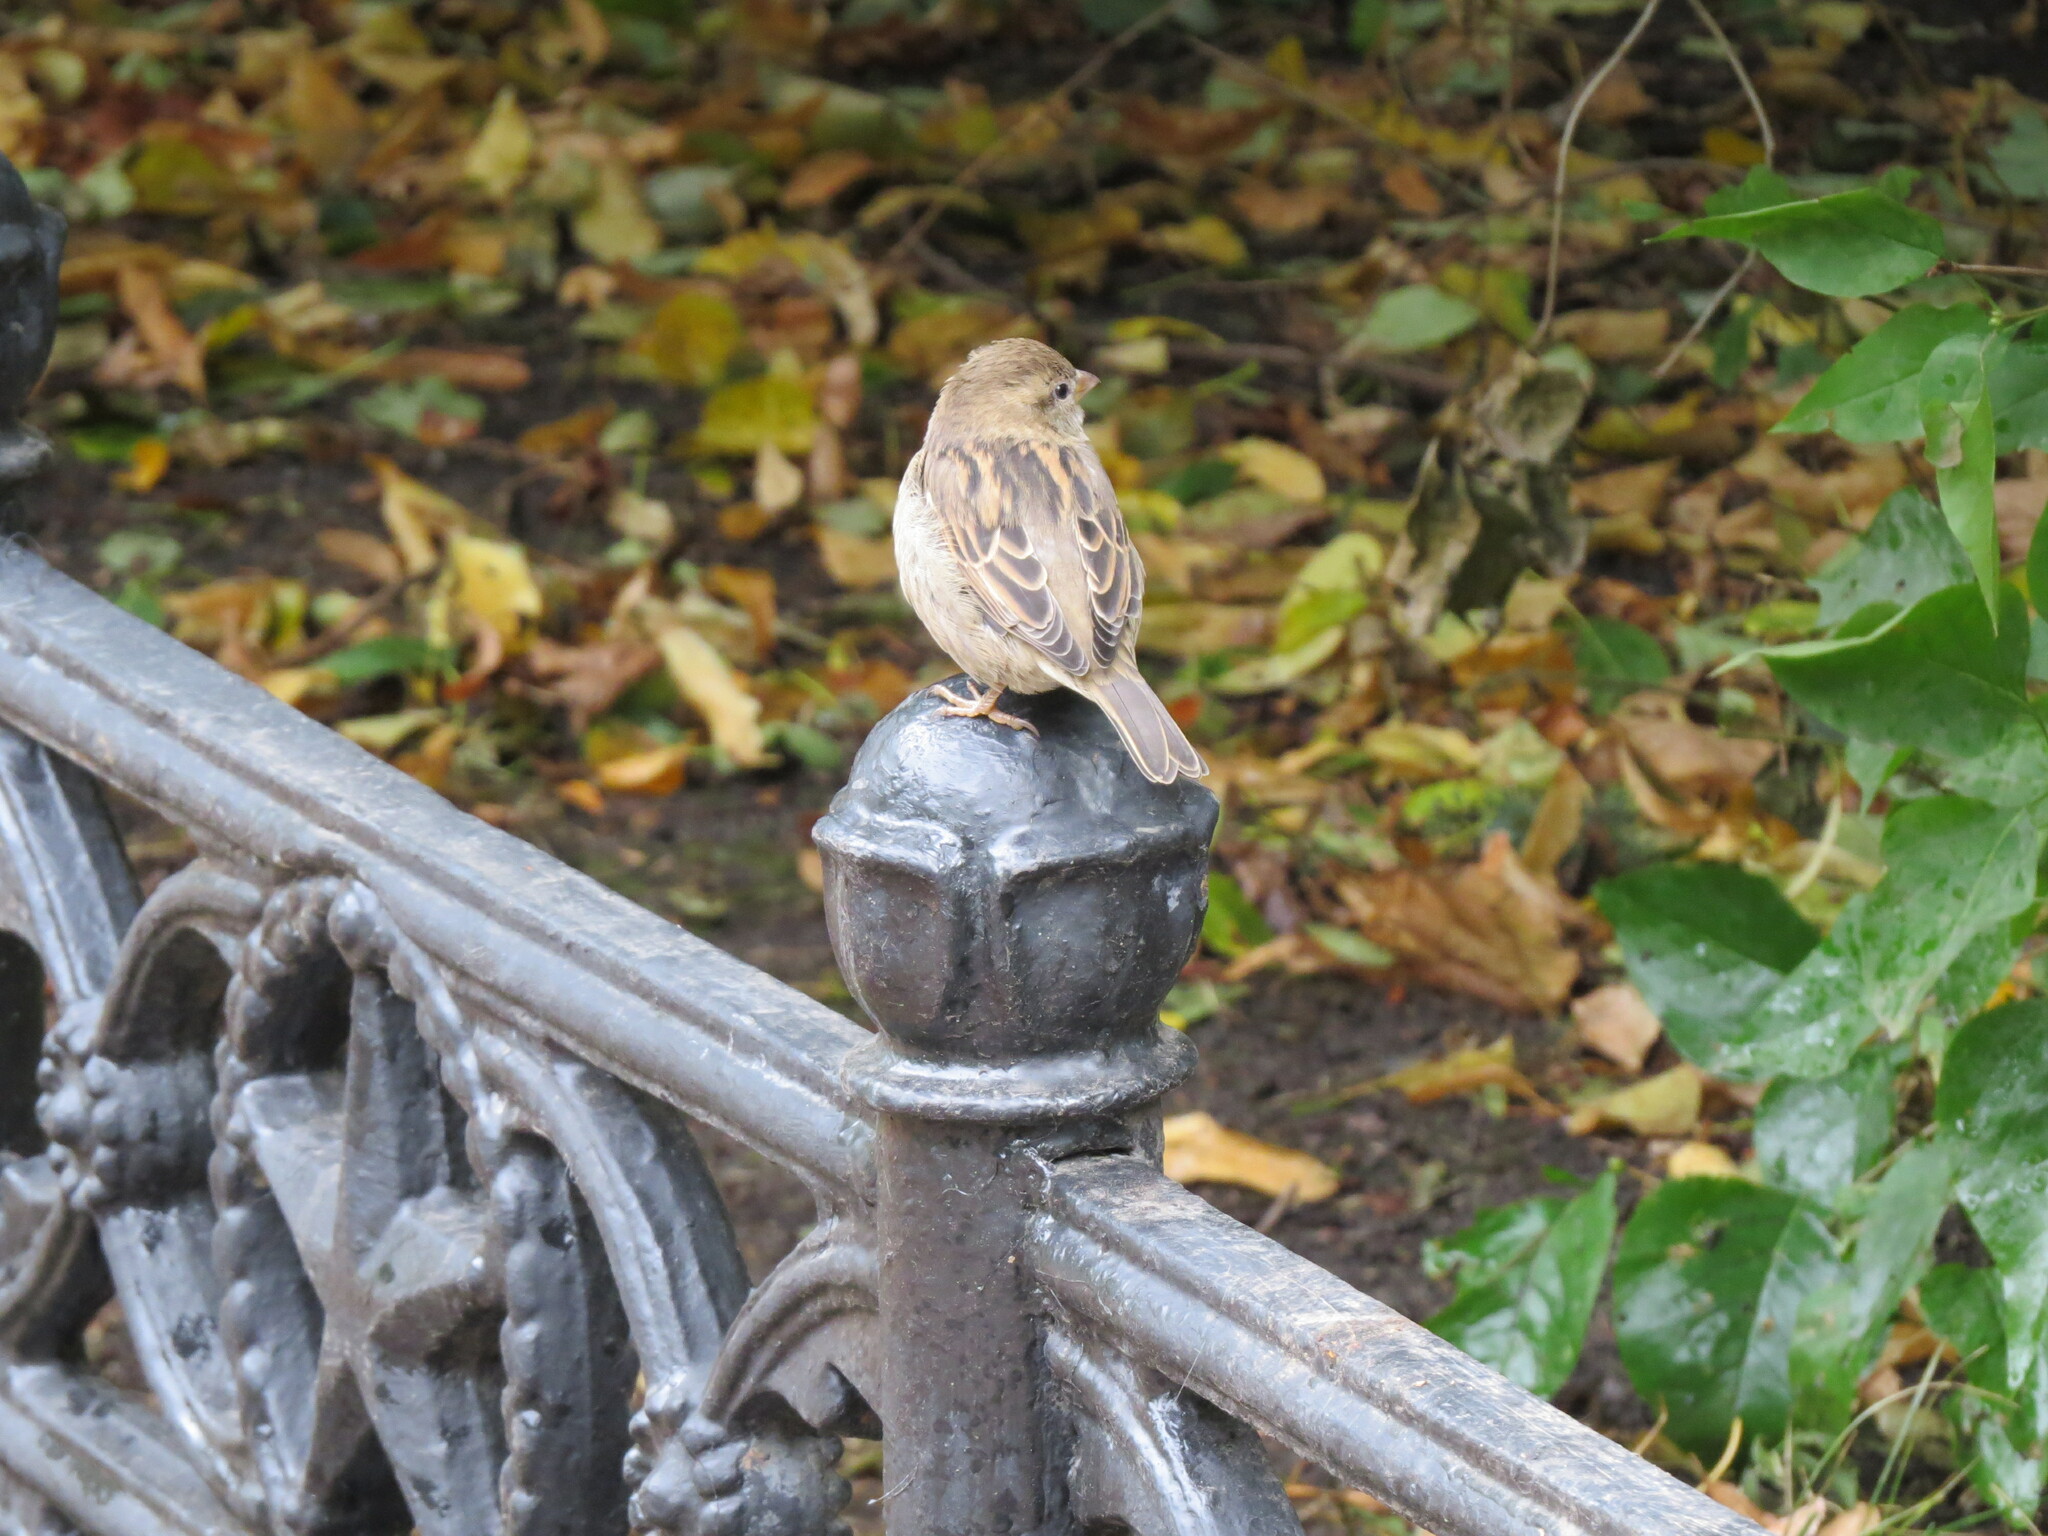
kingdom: Animalia
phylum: Chordata
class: Aves
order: Passeriformes
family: Passeridae
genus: Passer
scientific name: Passer domesticus
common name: House sparrow
